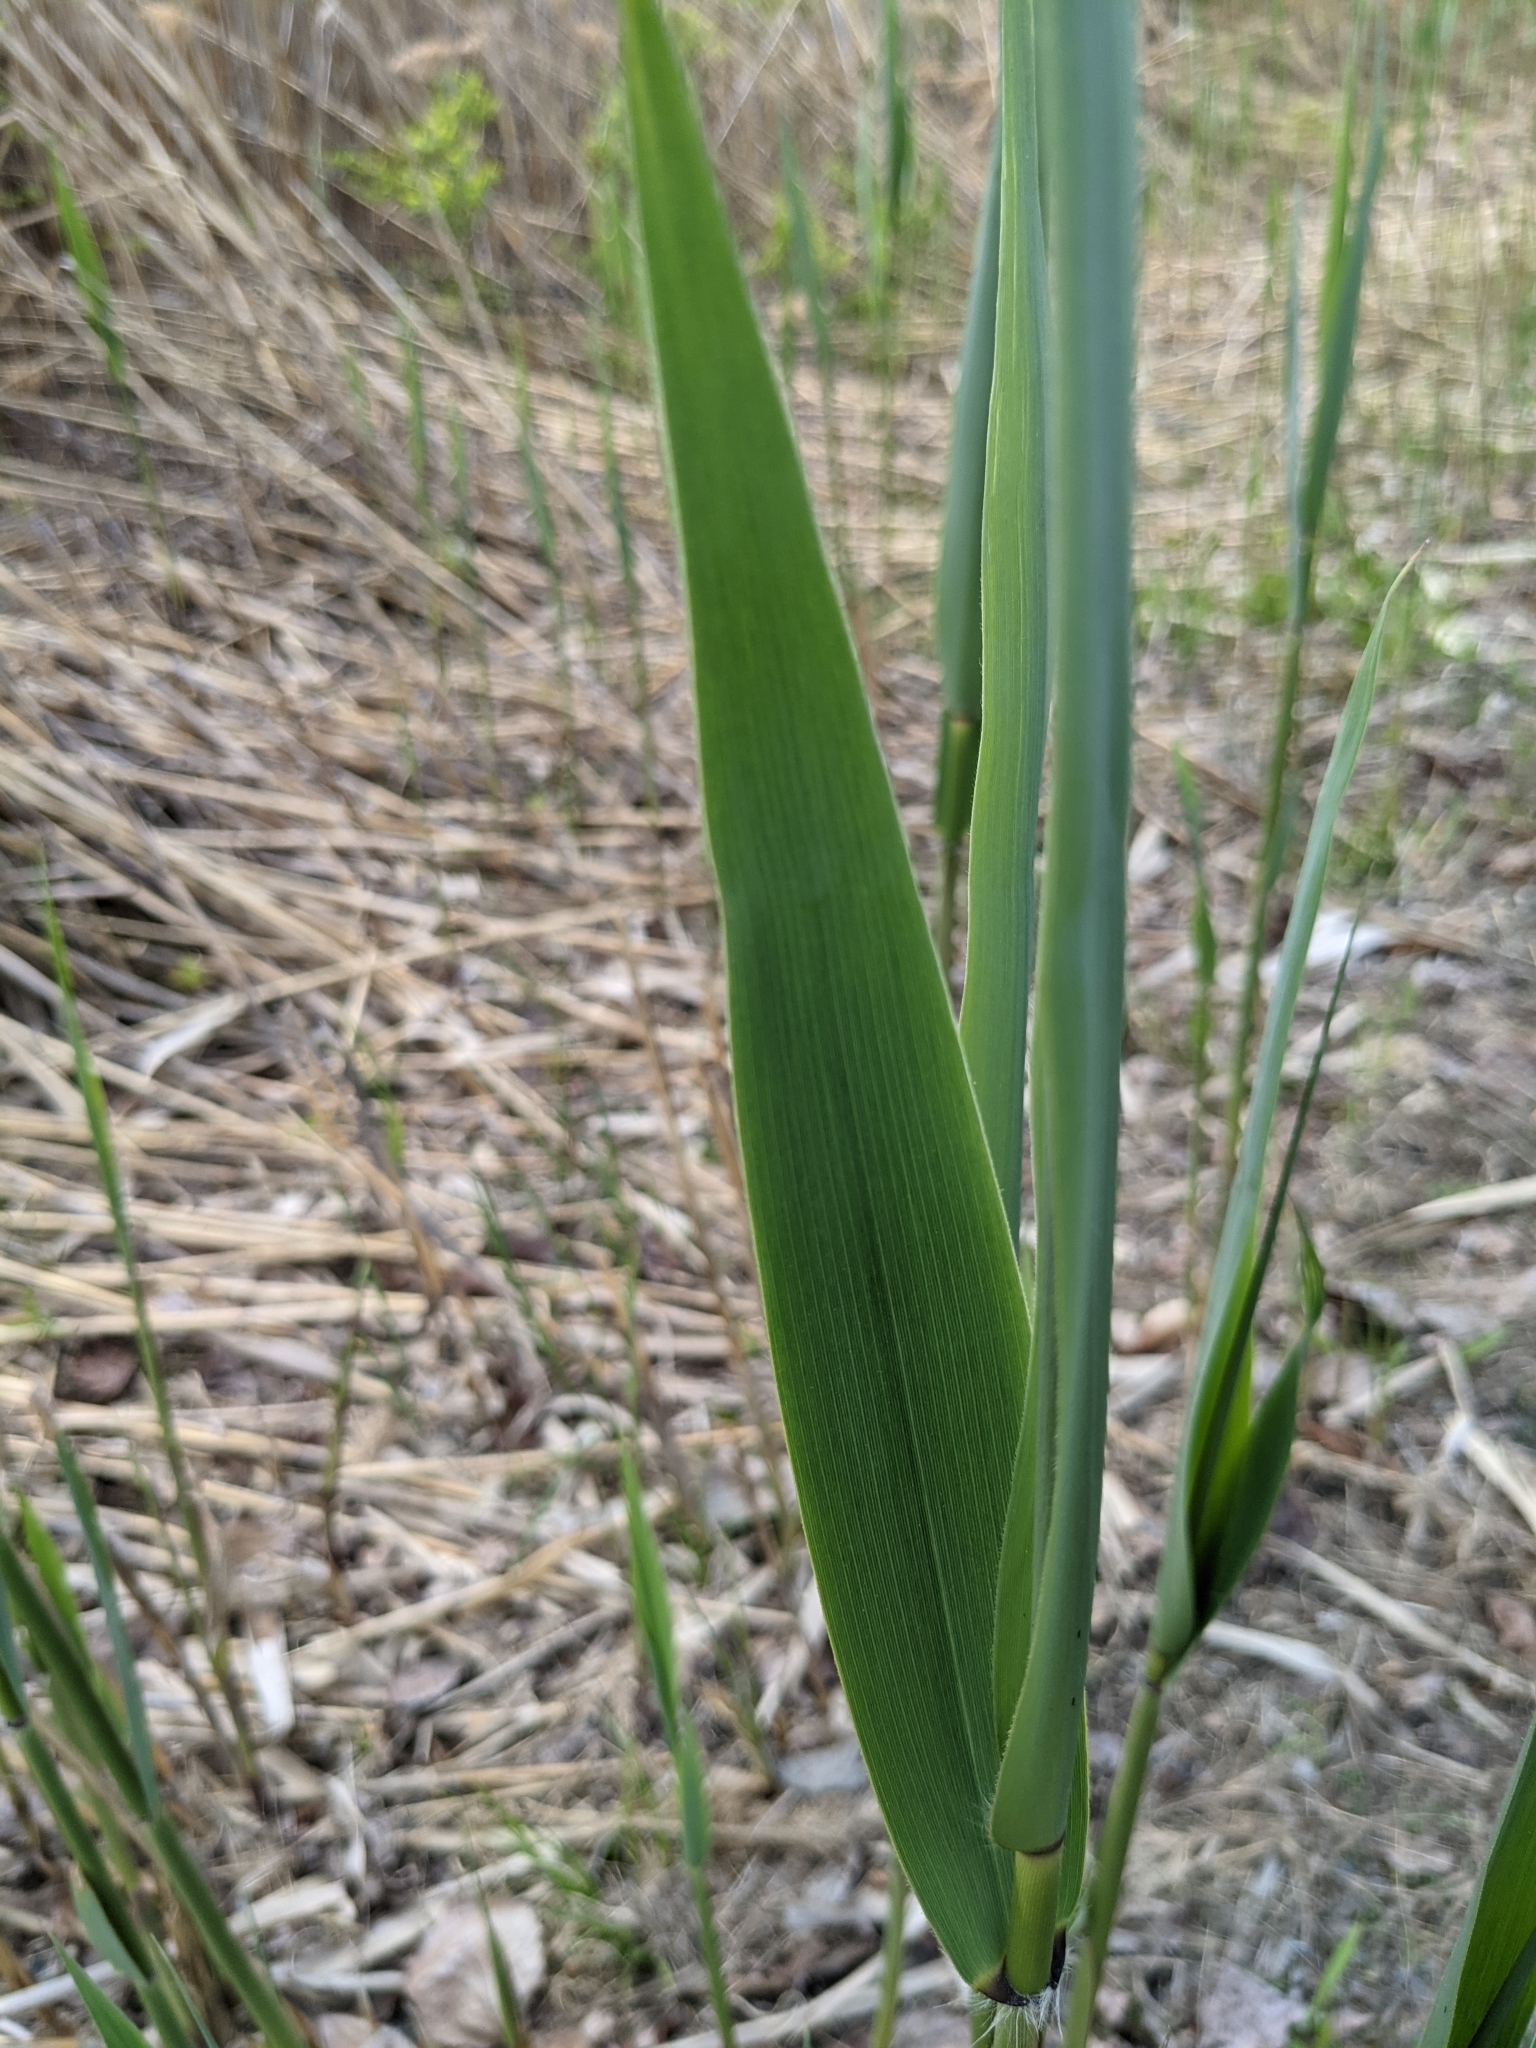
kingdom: Plantae
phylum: Tracheophyta
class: Liliopsida
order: Poales
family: Poaceae
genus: Phragmites
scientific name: Phragmites australis
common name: Common reed
